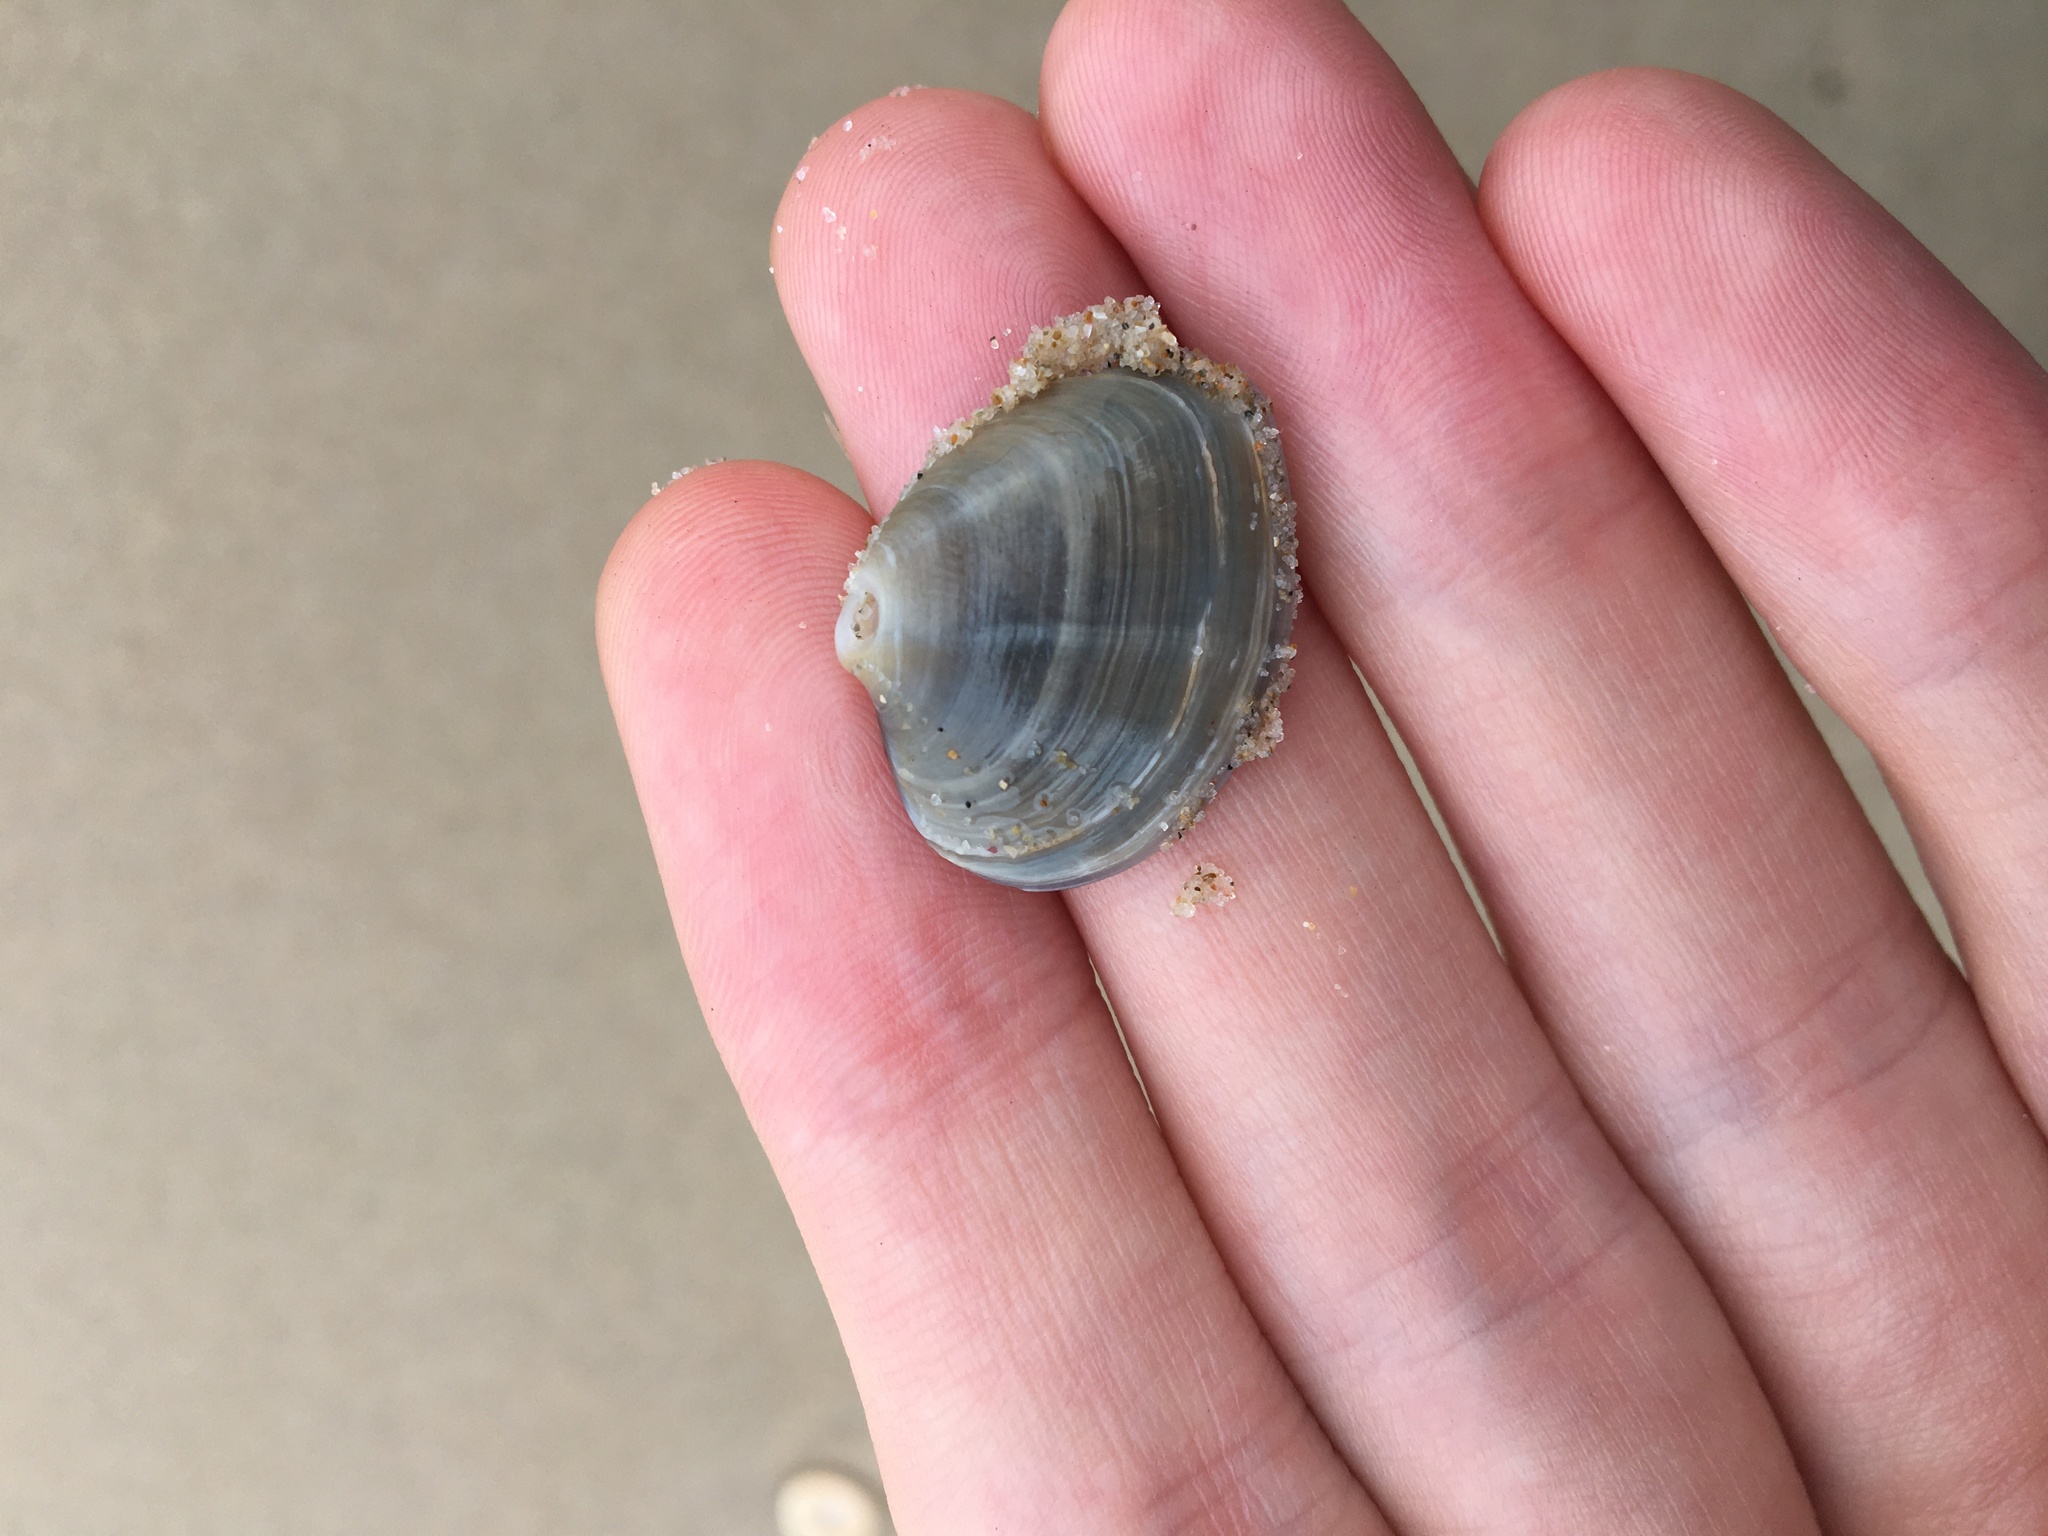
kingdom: Animalia
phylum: Mollusca
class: Bivalvia
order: Venerida
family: Veneridae
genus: Bassina
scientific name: Bassina jacksonii
